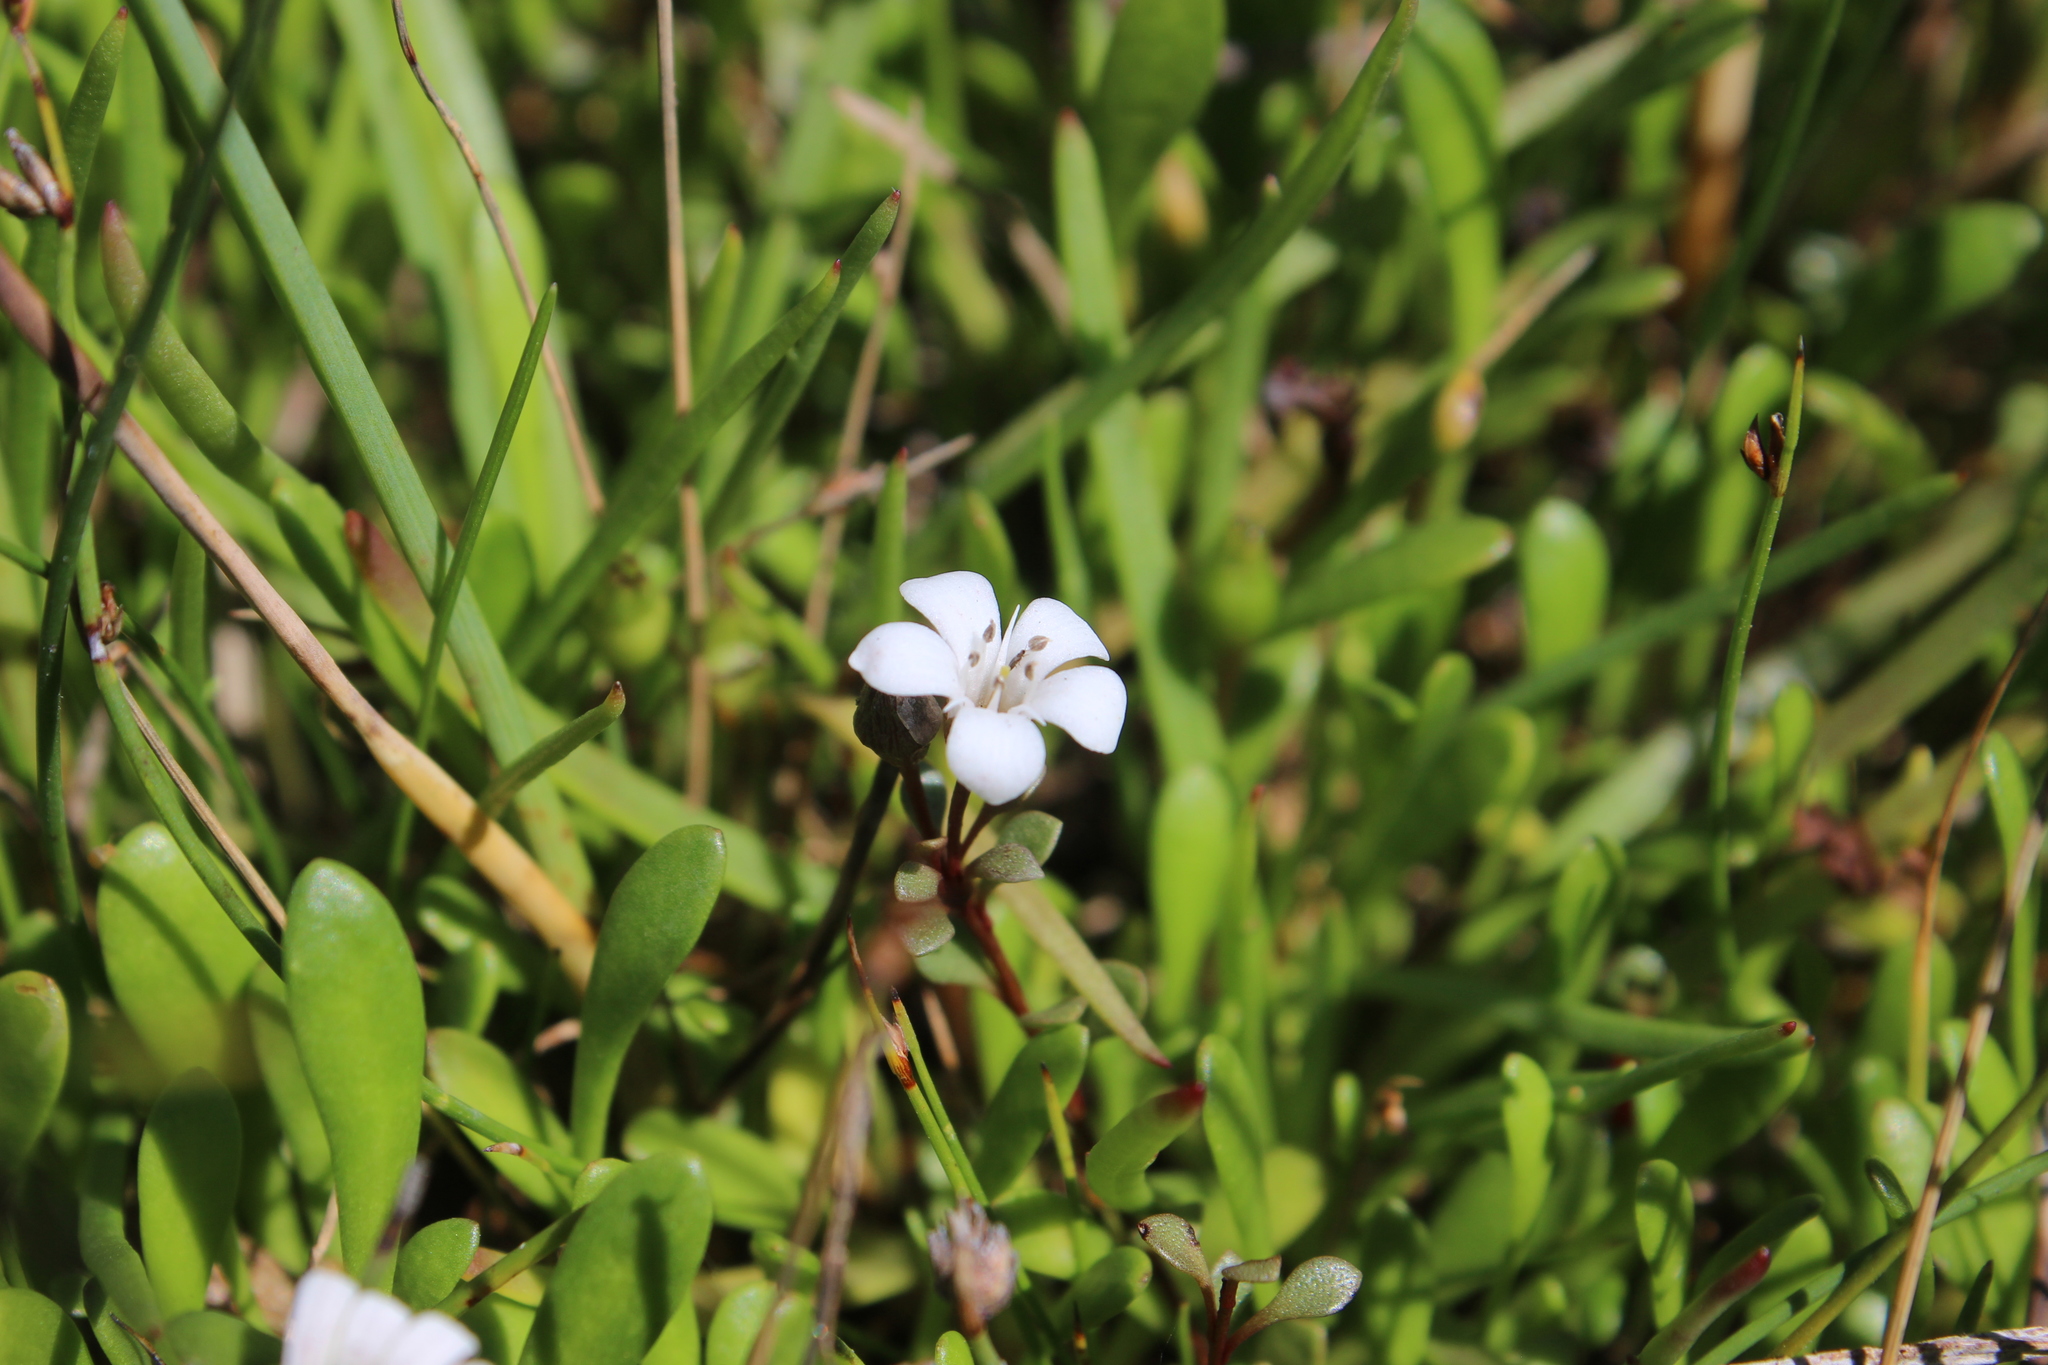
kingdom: Plantae
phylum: Tracheophyta
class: Magnoliopsida
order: Ericales
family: Primulaceae
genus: Samolus
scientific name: Samolus repens
